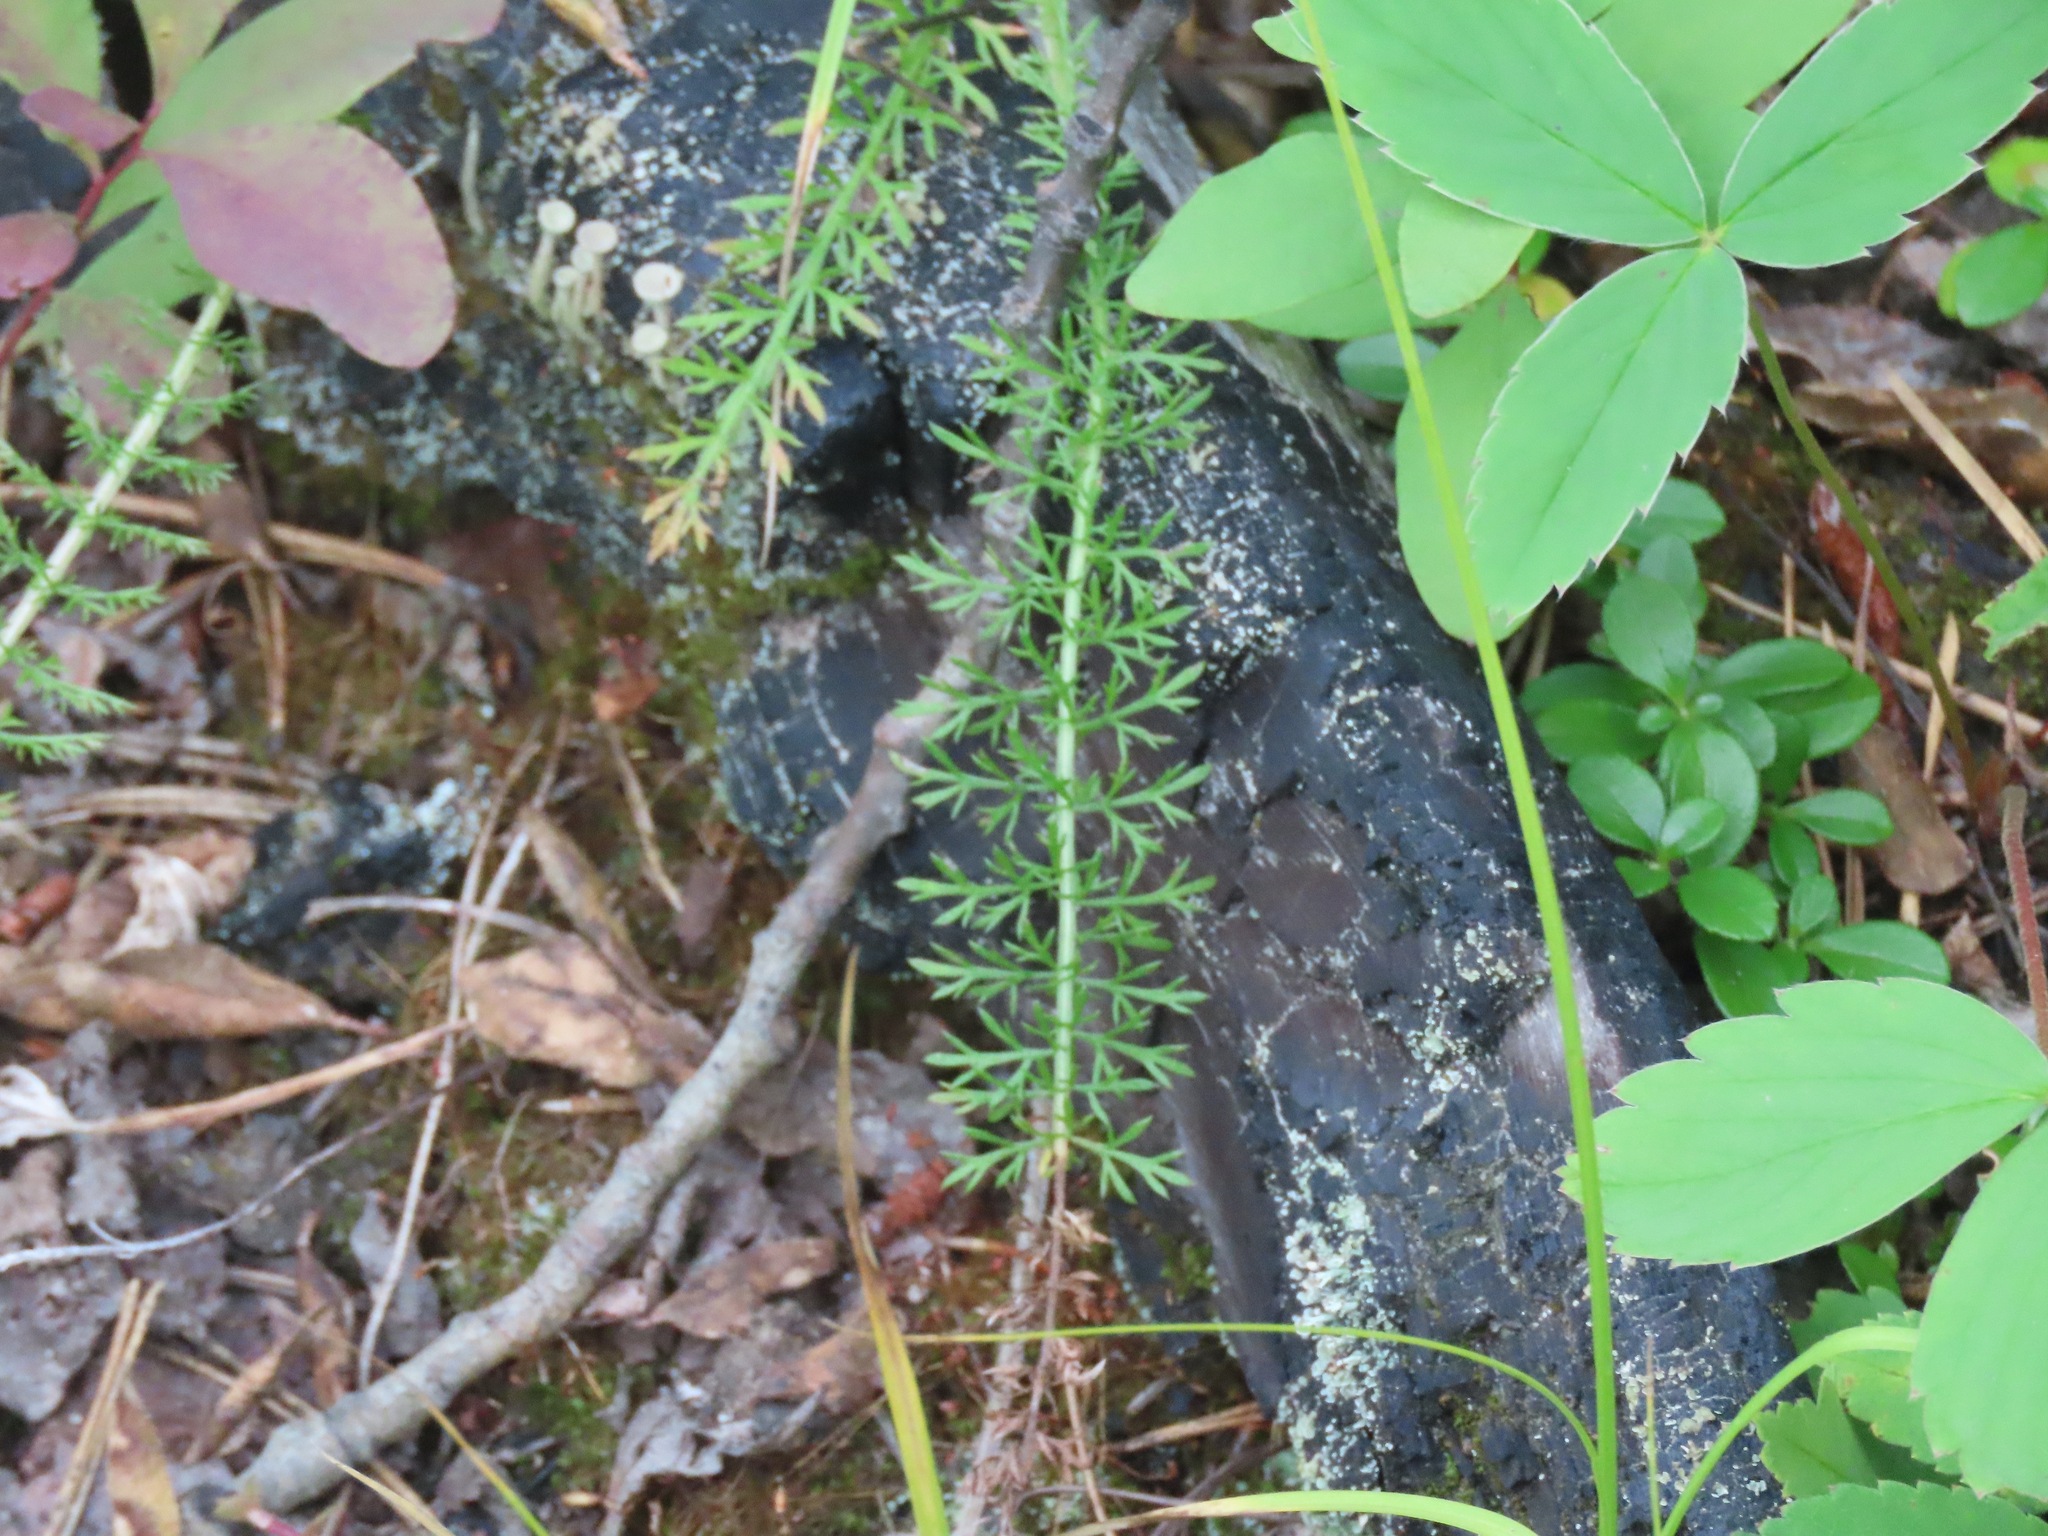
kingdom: Plantae
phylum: Tracheophyta
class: Magnoliopsida
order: Asterales
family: Asteraceae
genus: Achillea
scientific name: Achillea millefolium
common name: Yarrow
